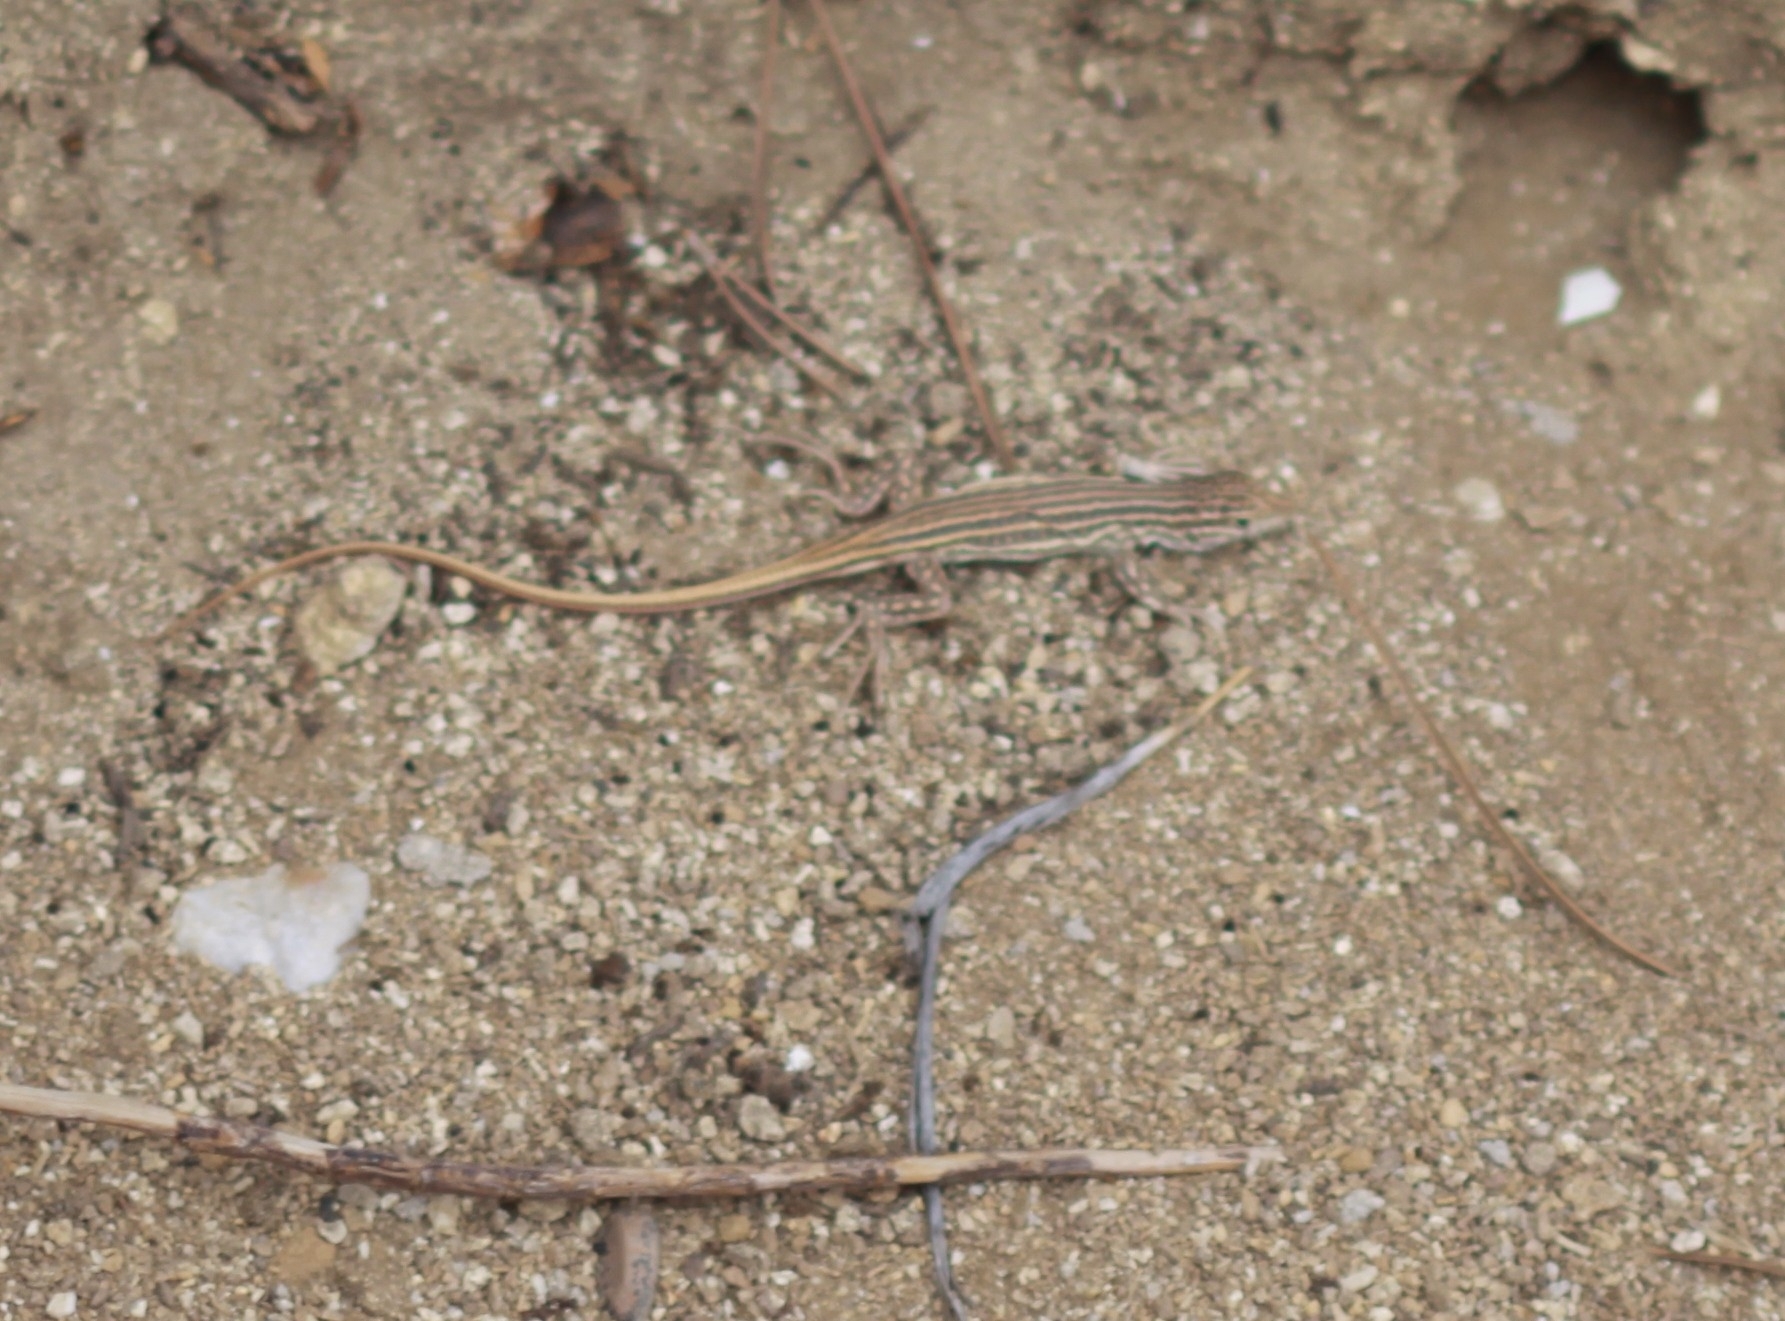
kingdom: Animalia
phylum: Chordata
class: Squamata
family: Lacertidae
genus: Acanthodactylus
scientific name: Acanthodactylus erythrurus
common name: Spiny-footed lizard
